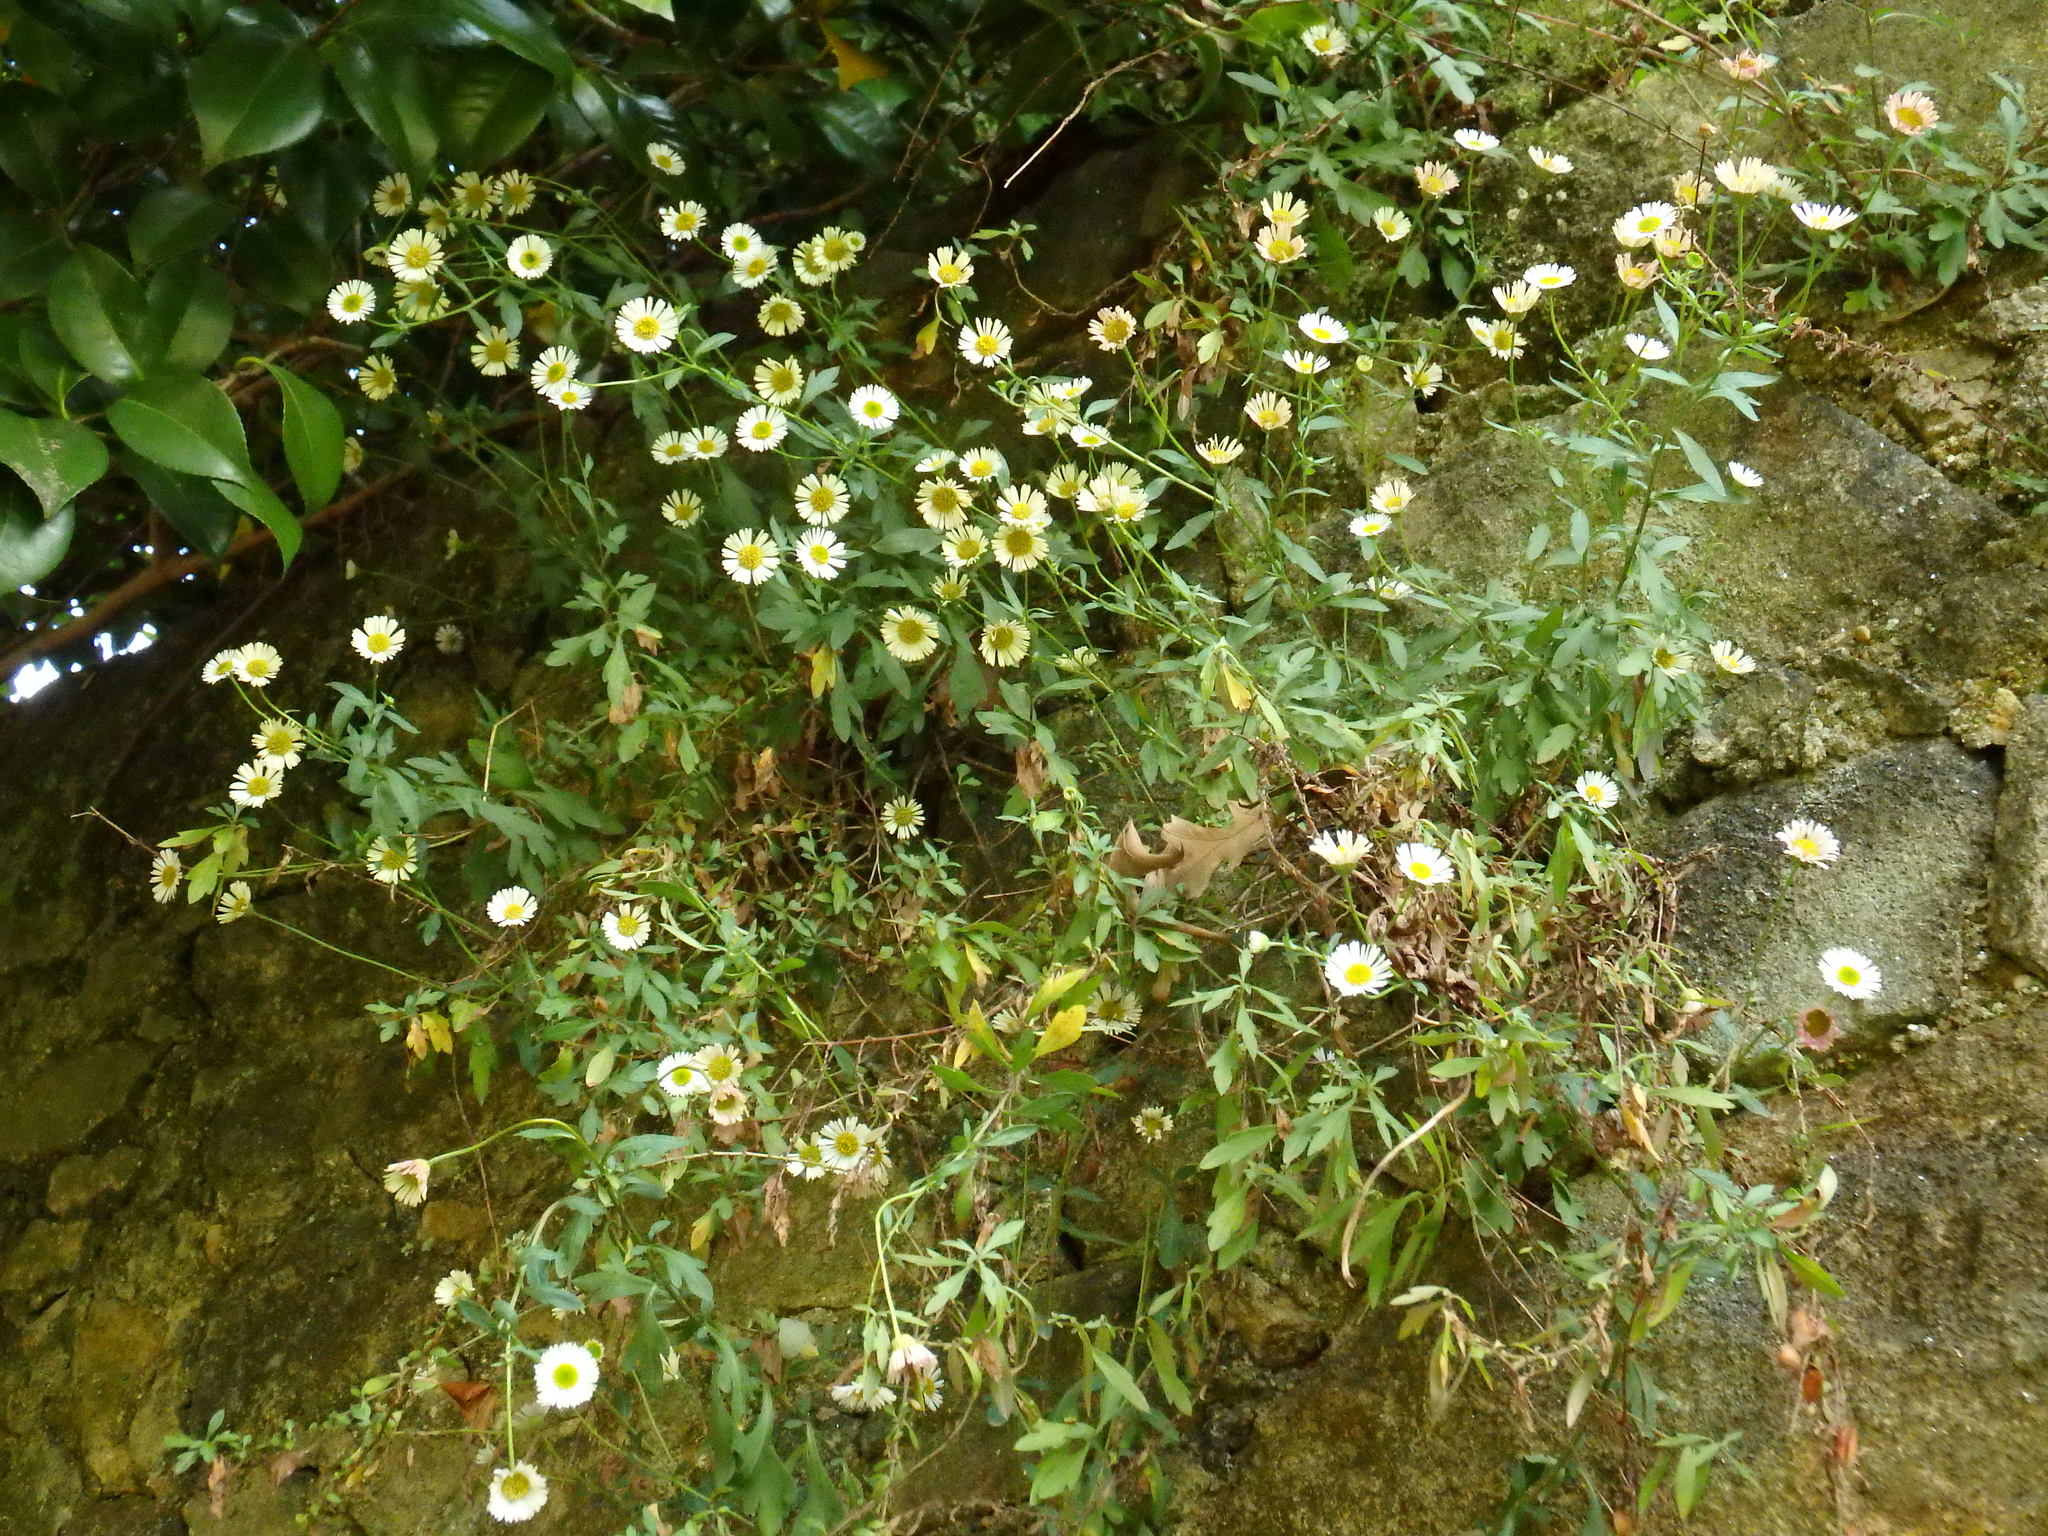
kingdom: Plantae
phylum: Tracheophyta
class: Magnoliopsida
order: Asterales
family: Asteraceae
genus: Erigeron
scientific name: Erigeron karvinskianus
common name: Mexican fleabane
